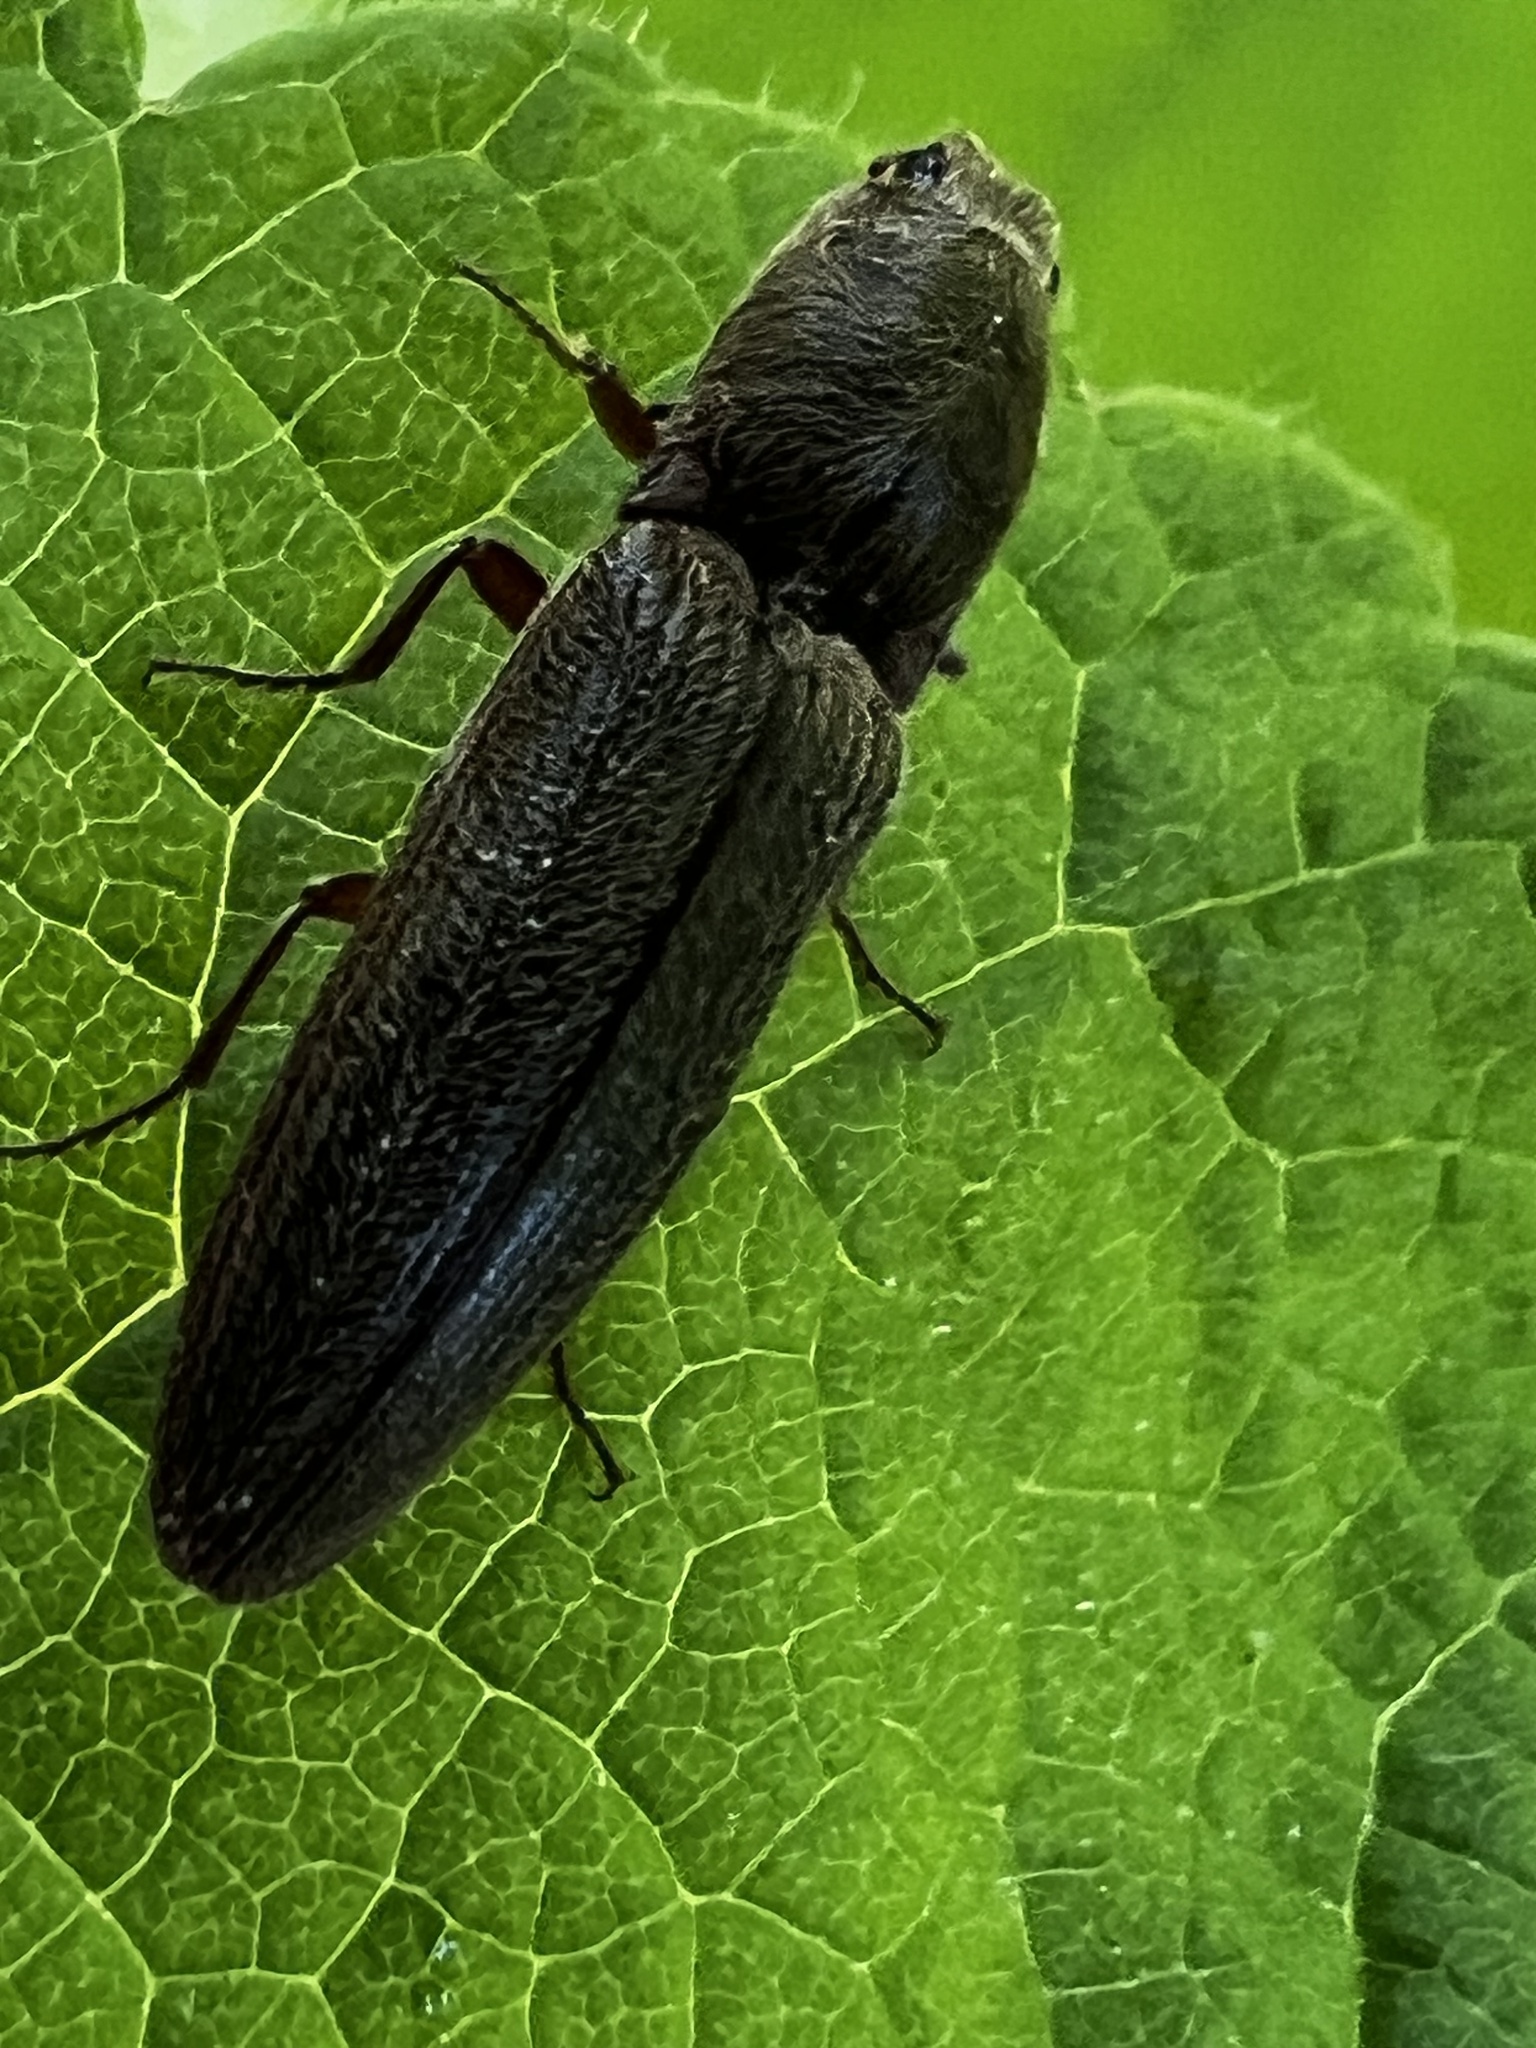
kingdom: Animalia
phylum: Arthropoda
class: Insecta
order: Coleoptera
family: Elateridae
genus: Gambrinus
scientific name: Gambrinus griseus
